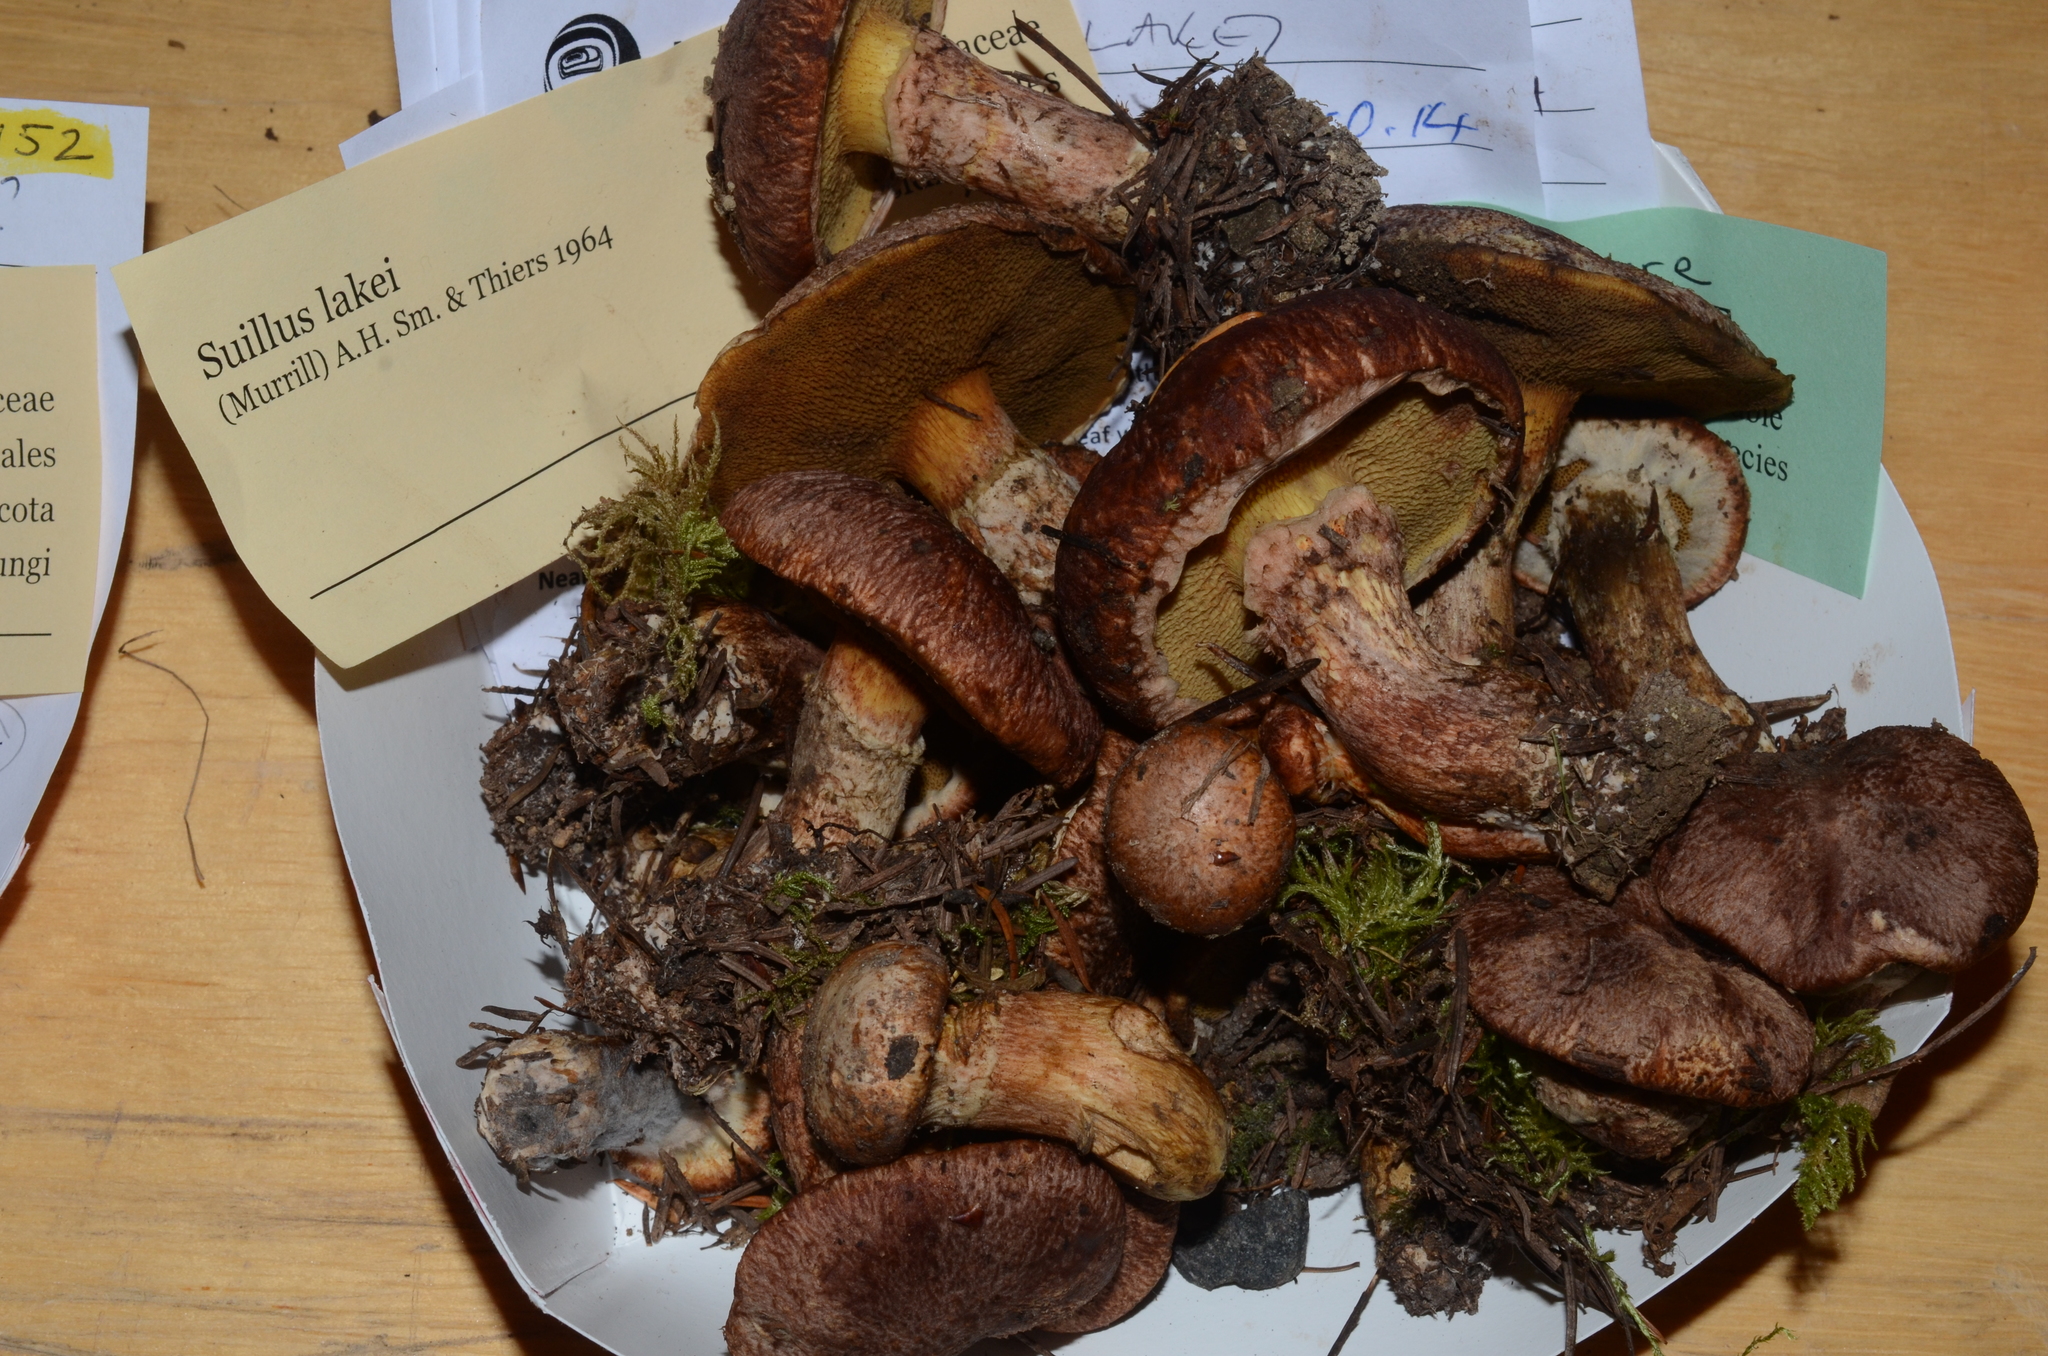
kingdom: Fungi
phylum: Basidiomycota
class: Agaricomycetes
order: Boletales
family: Suillaceae
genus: Suillus
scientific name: Suillus lakei
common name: Western painted suillus
